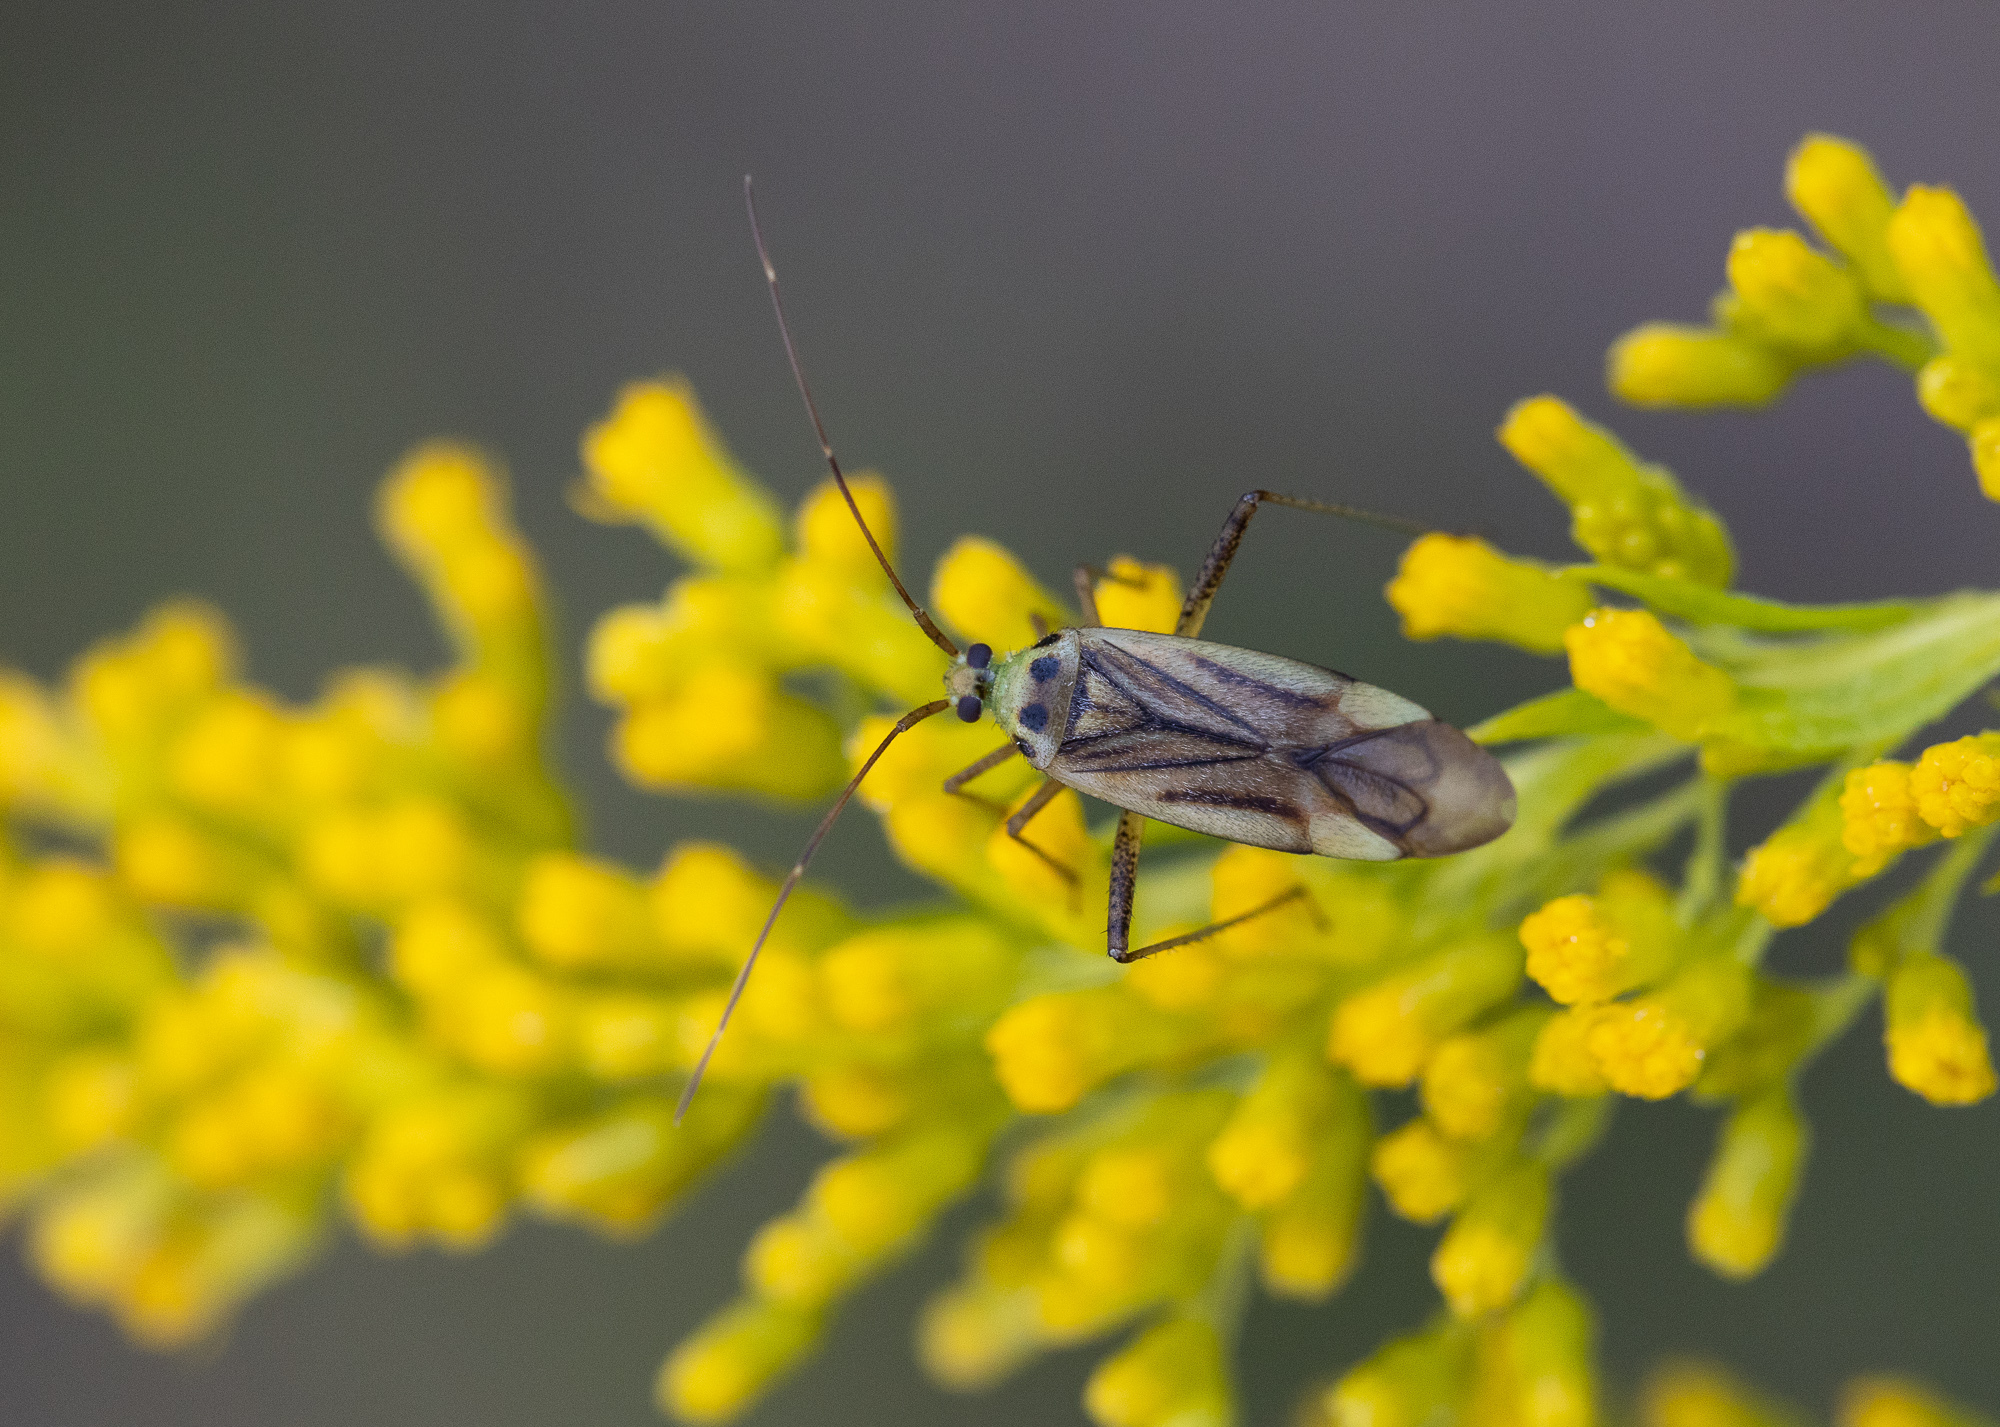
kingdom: Animalia
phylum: Arthropoda
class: Insecta
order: Hemiptera
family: Miridae
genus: Adelphocoris
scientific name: Adelphocoris quadripunctatus
